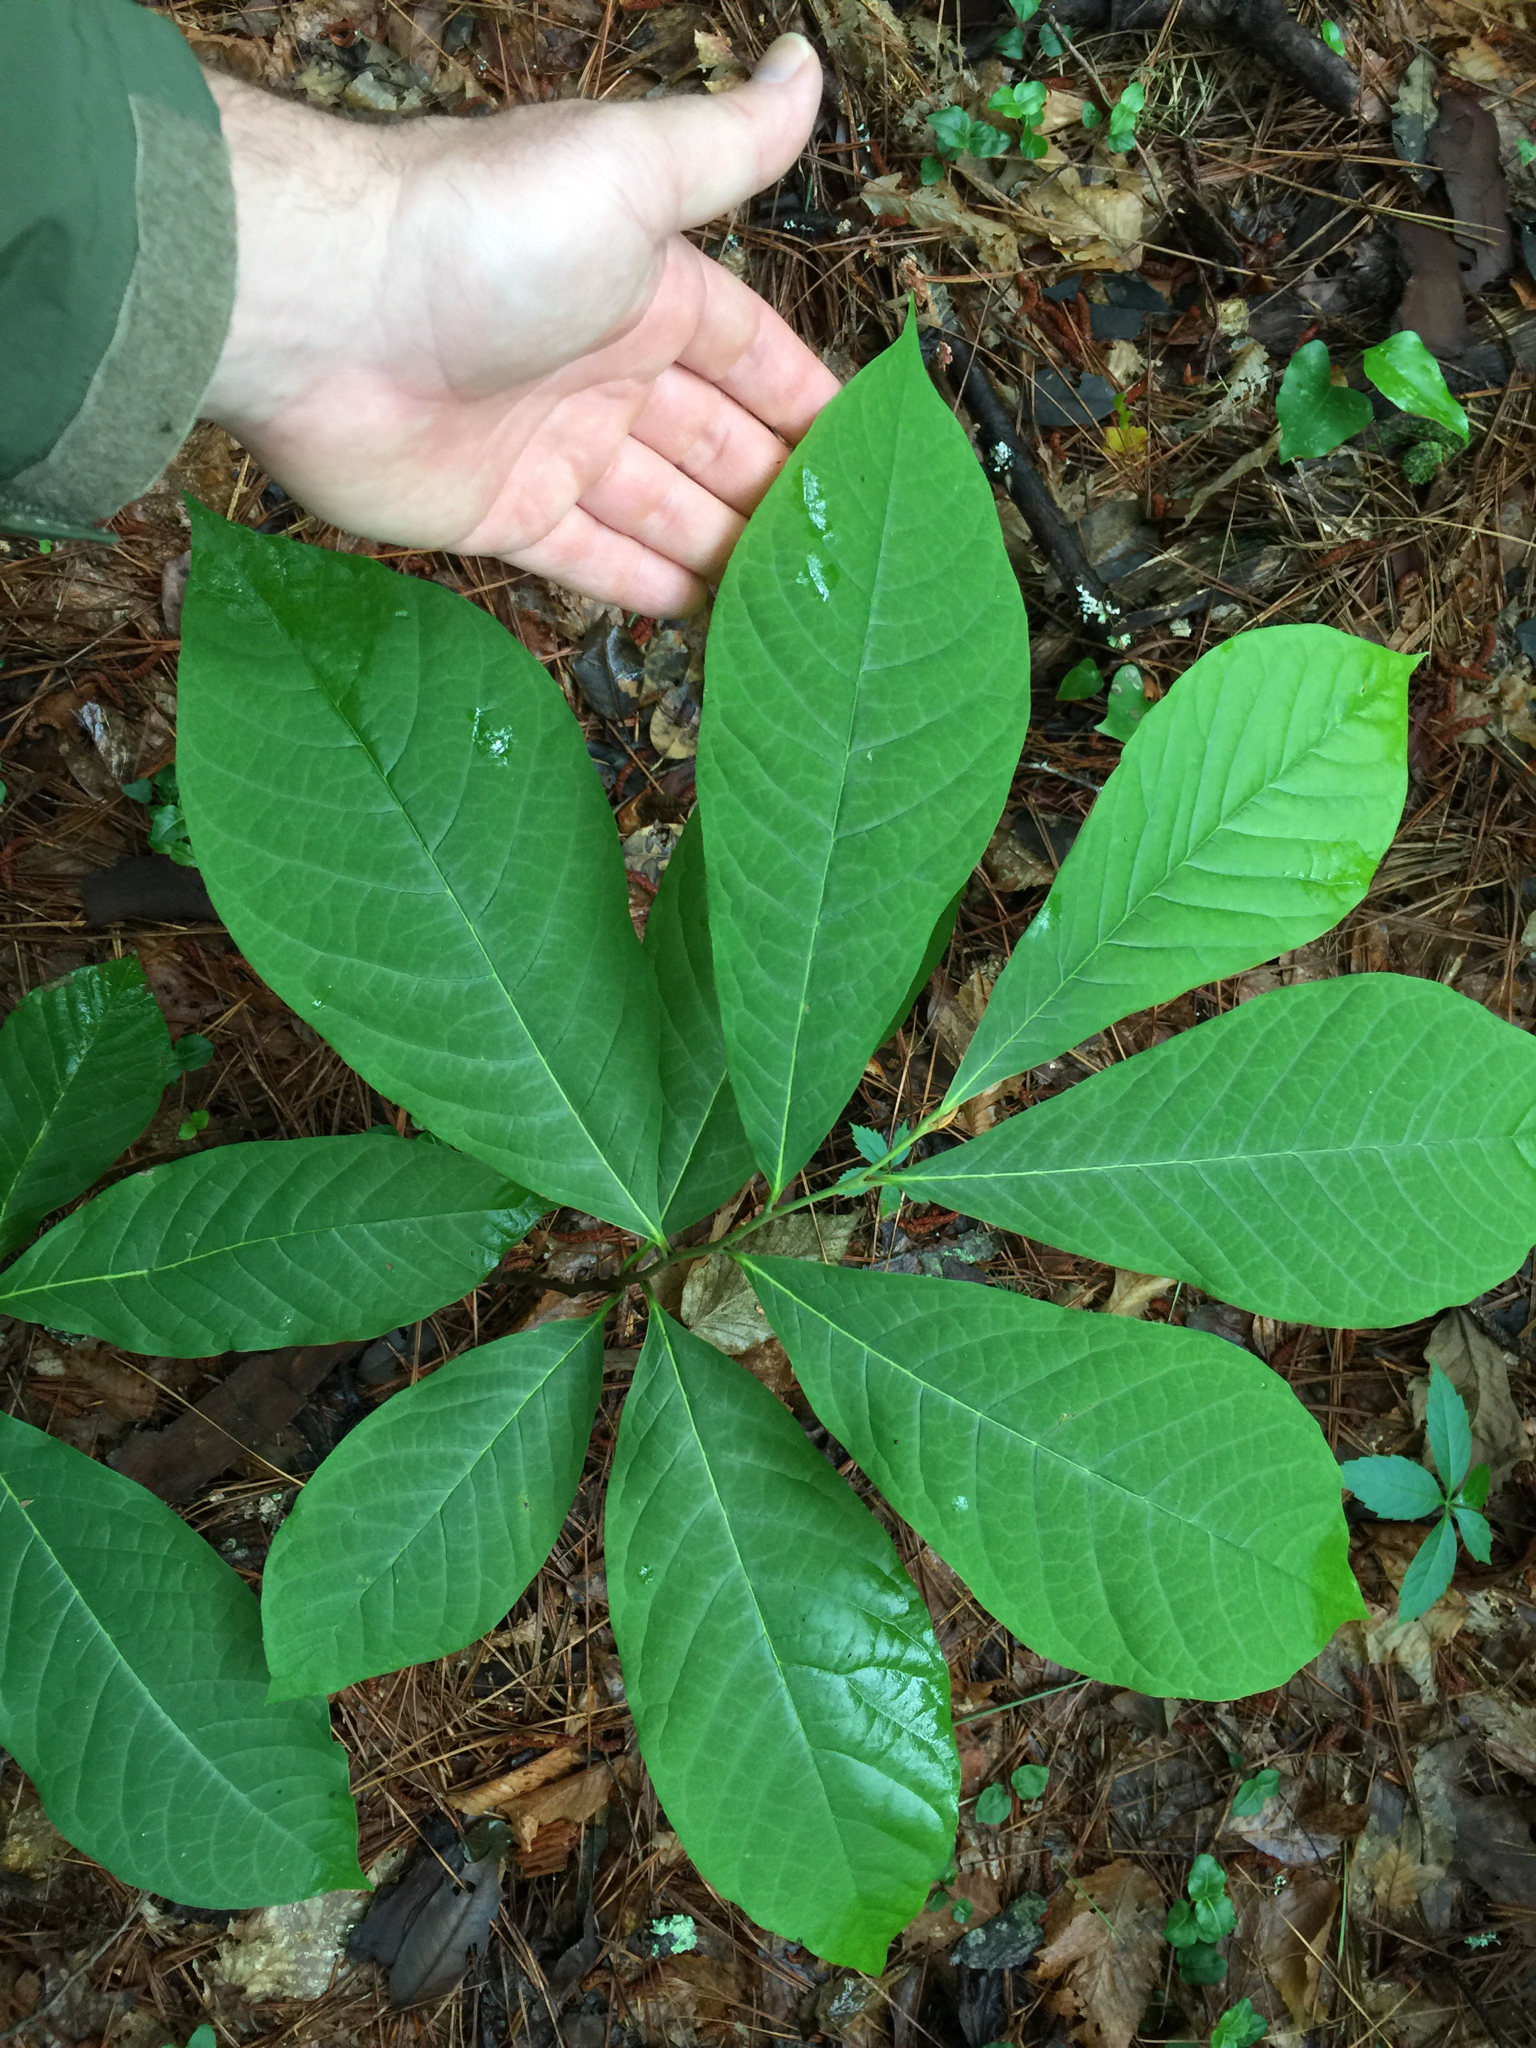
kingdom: Plantae
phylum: Tracheophyta
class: Magnoliopsida
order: Magnoliales
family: Annonaceae
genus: Asimina
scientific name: Asimina triloba
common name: Dog-banana
